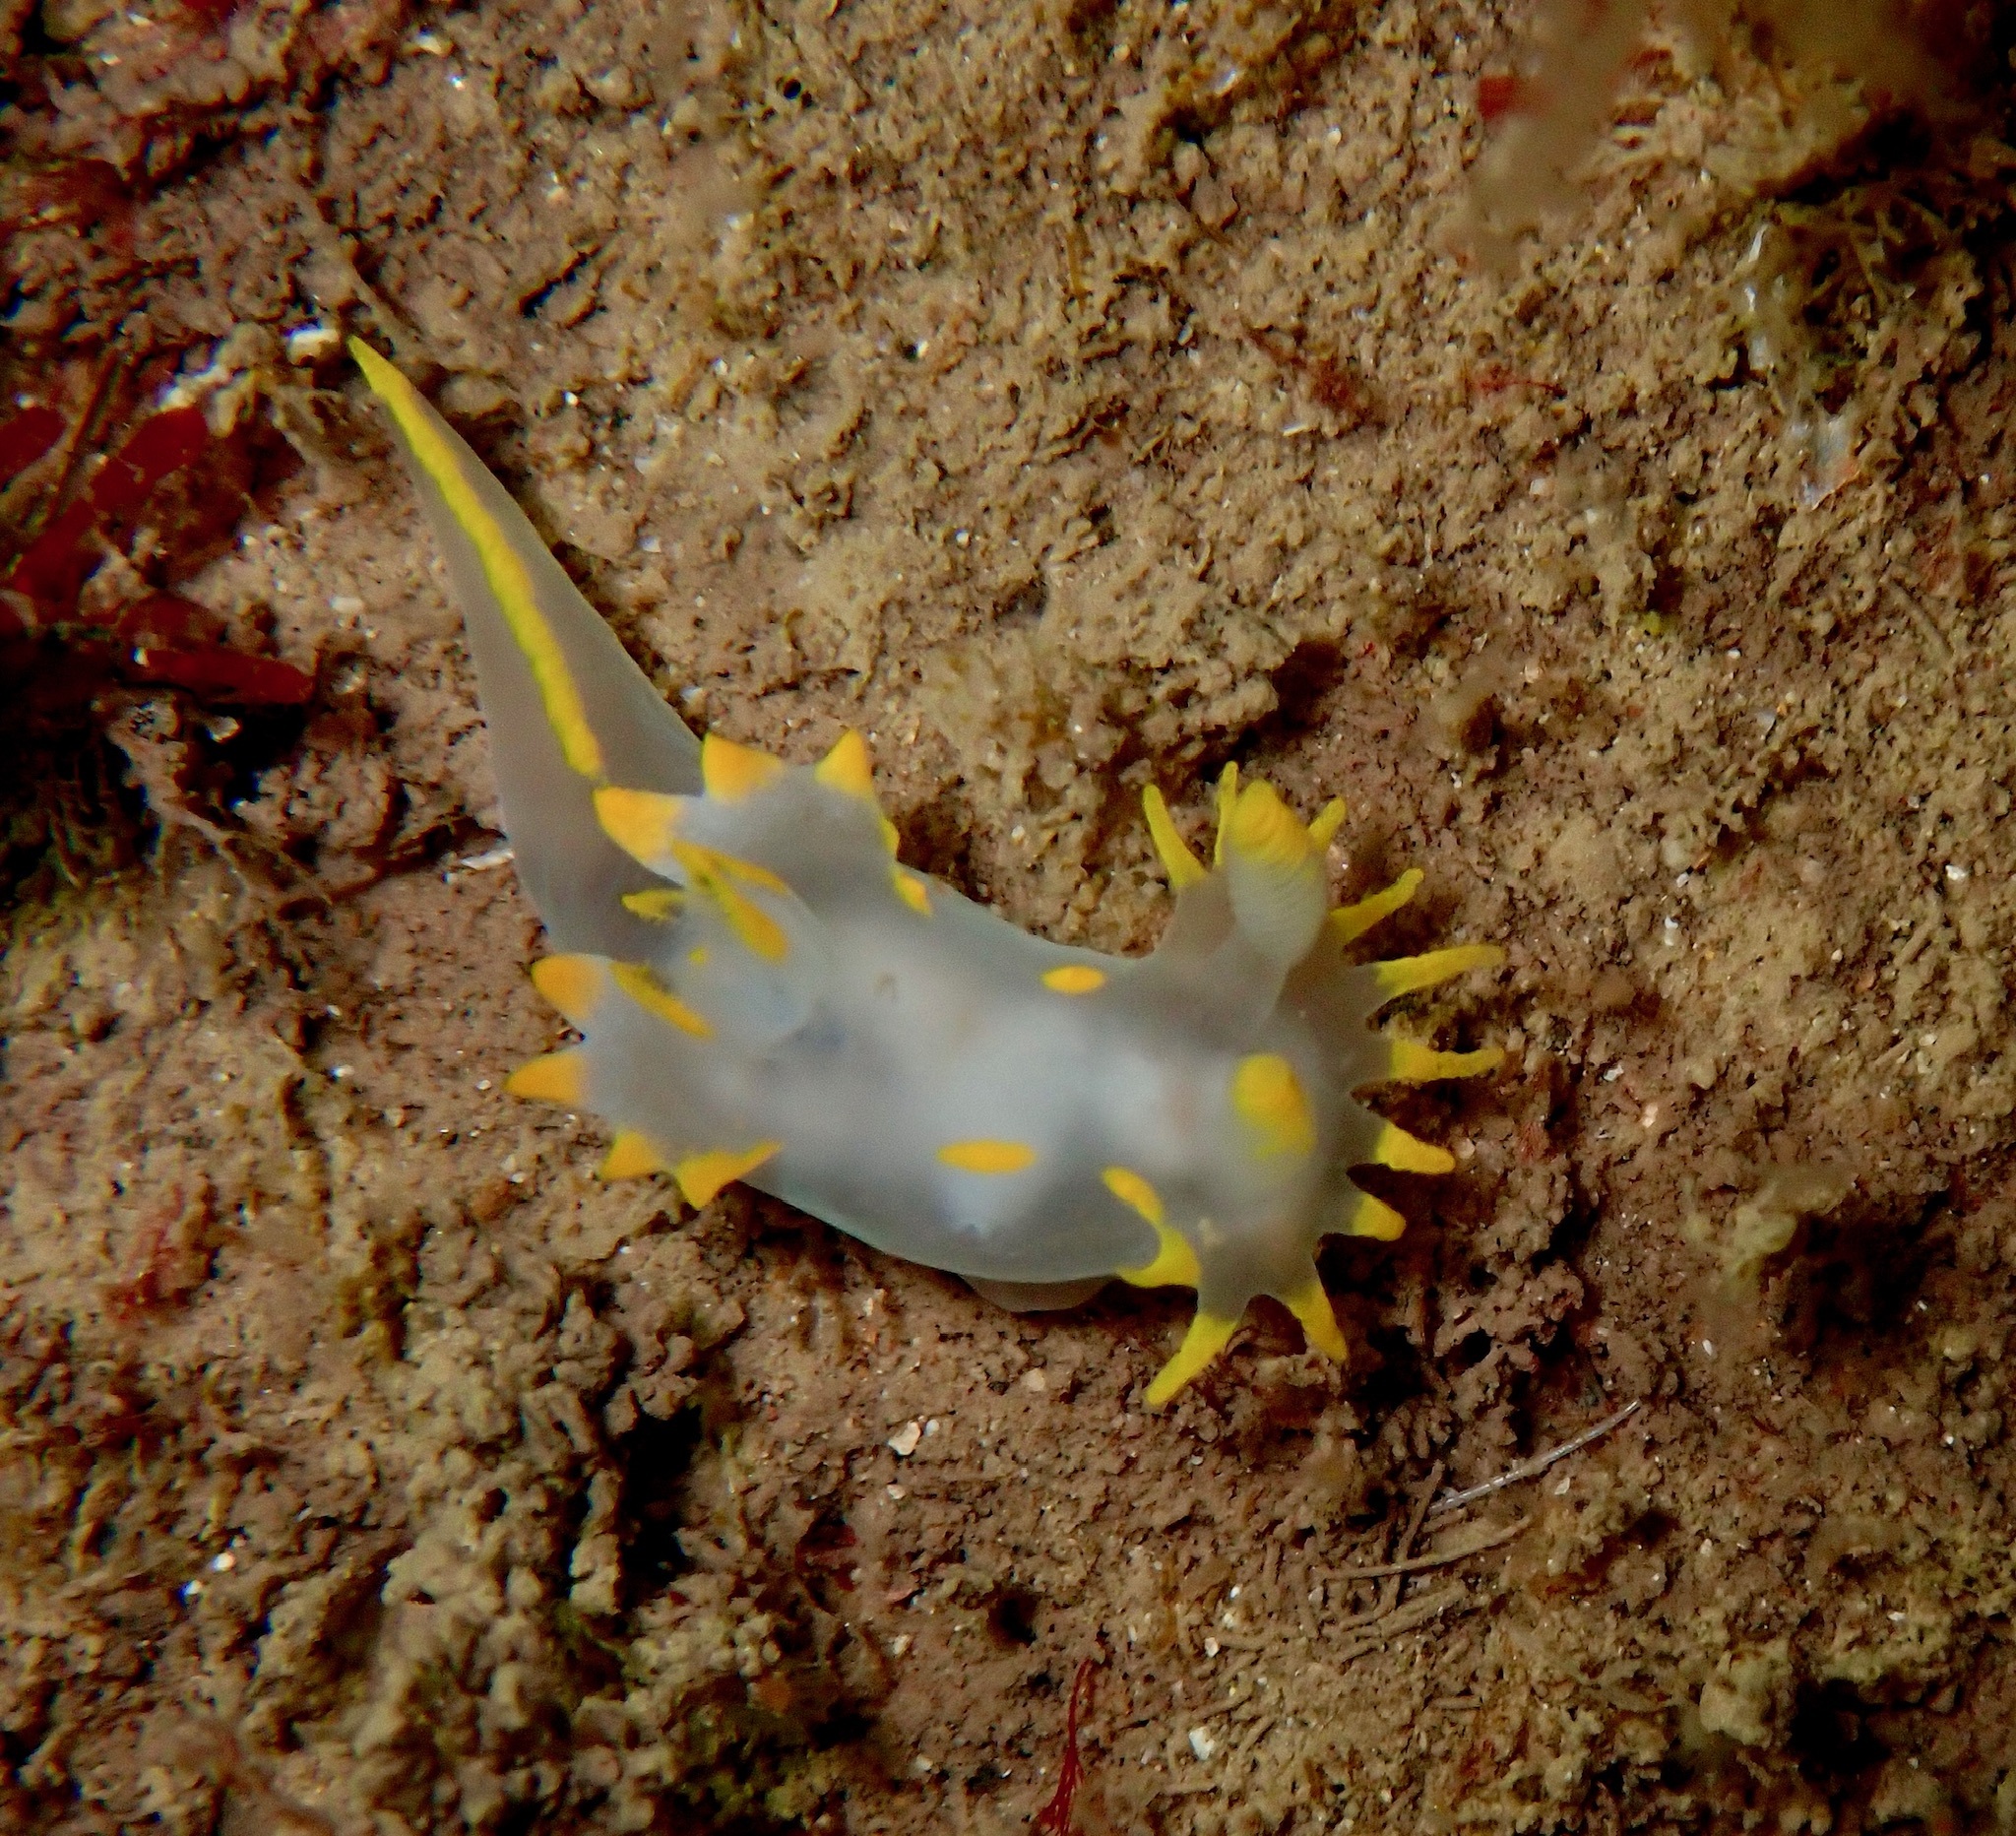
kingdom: Animalia
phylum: Mollusca
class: Gastropoda
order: Nudibranchia
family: Polyceridae
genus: Polycera
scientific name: Polycera faeroensis
